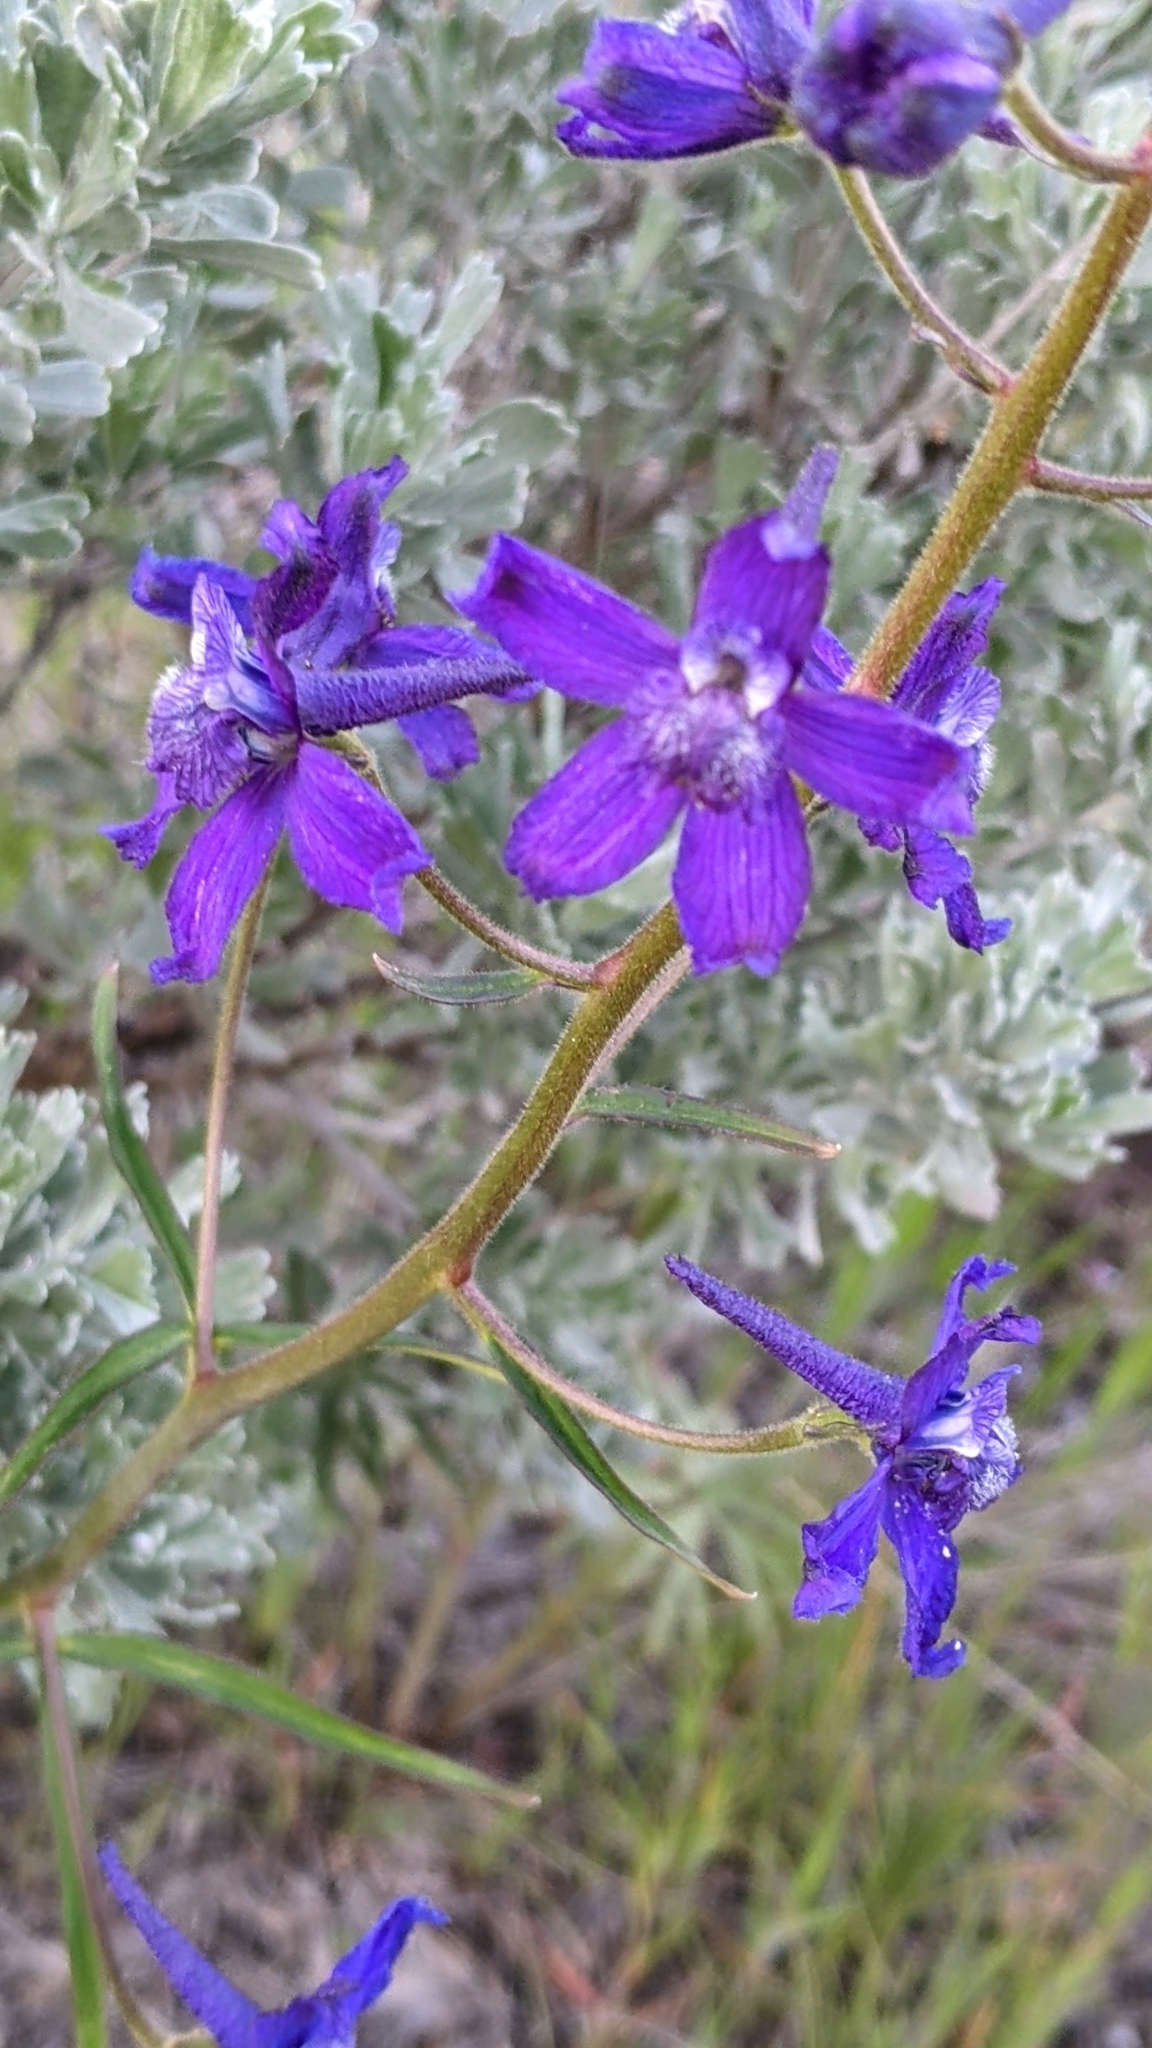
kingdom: Plantae
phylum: Tracheophyta
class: Magnoliopsida
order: Ranunculales
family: Ranunculaceae
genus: Delphinium
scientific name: Delphinium nuttallianum
